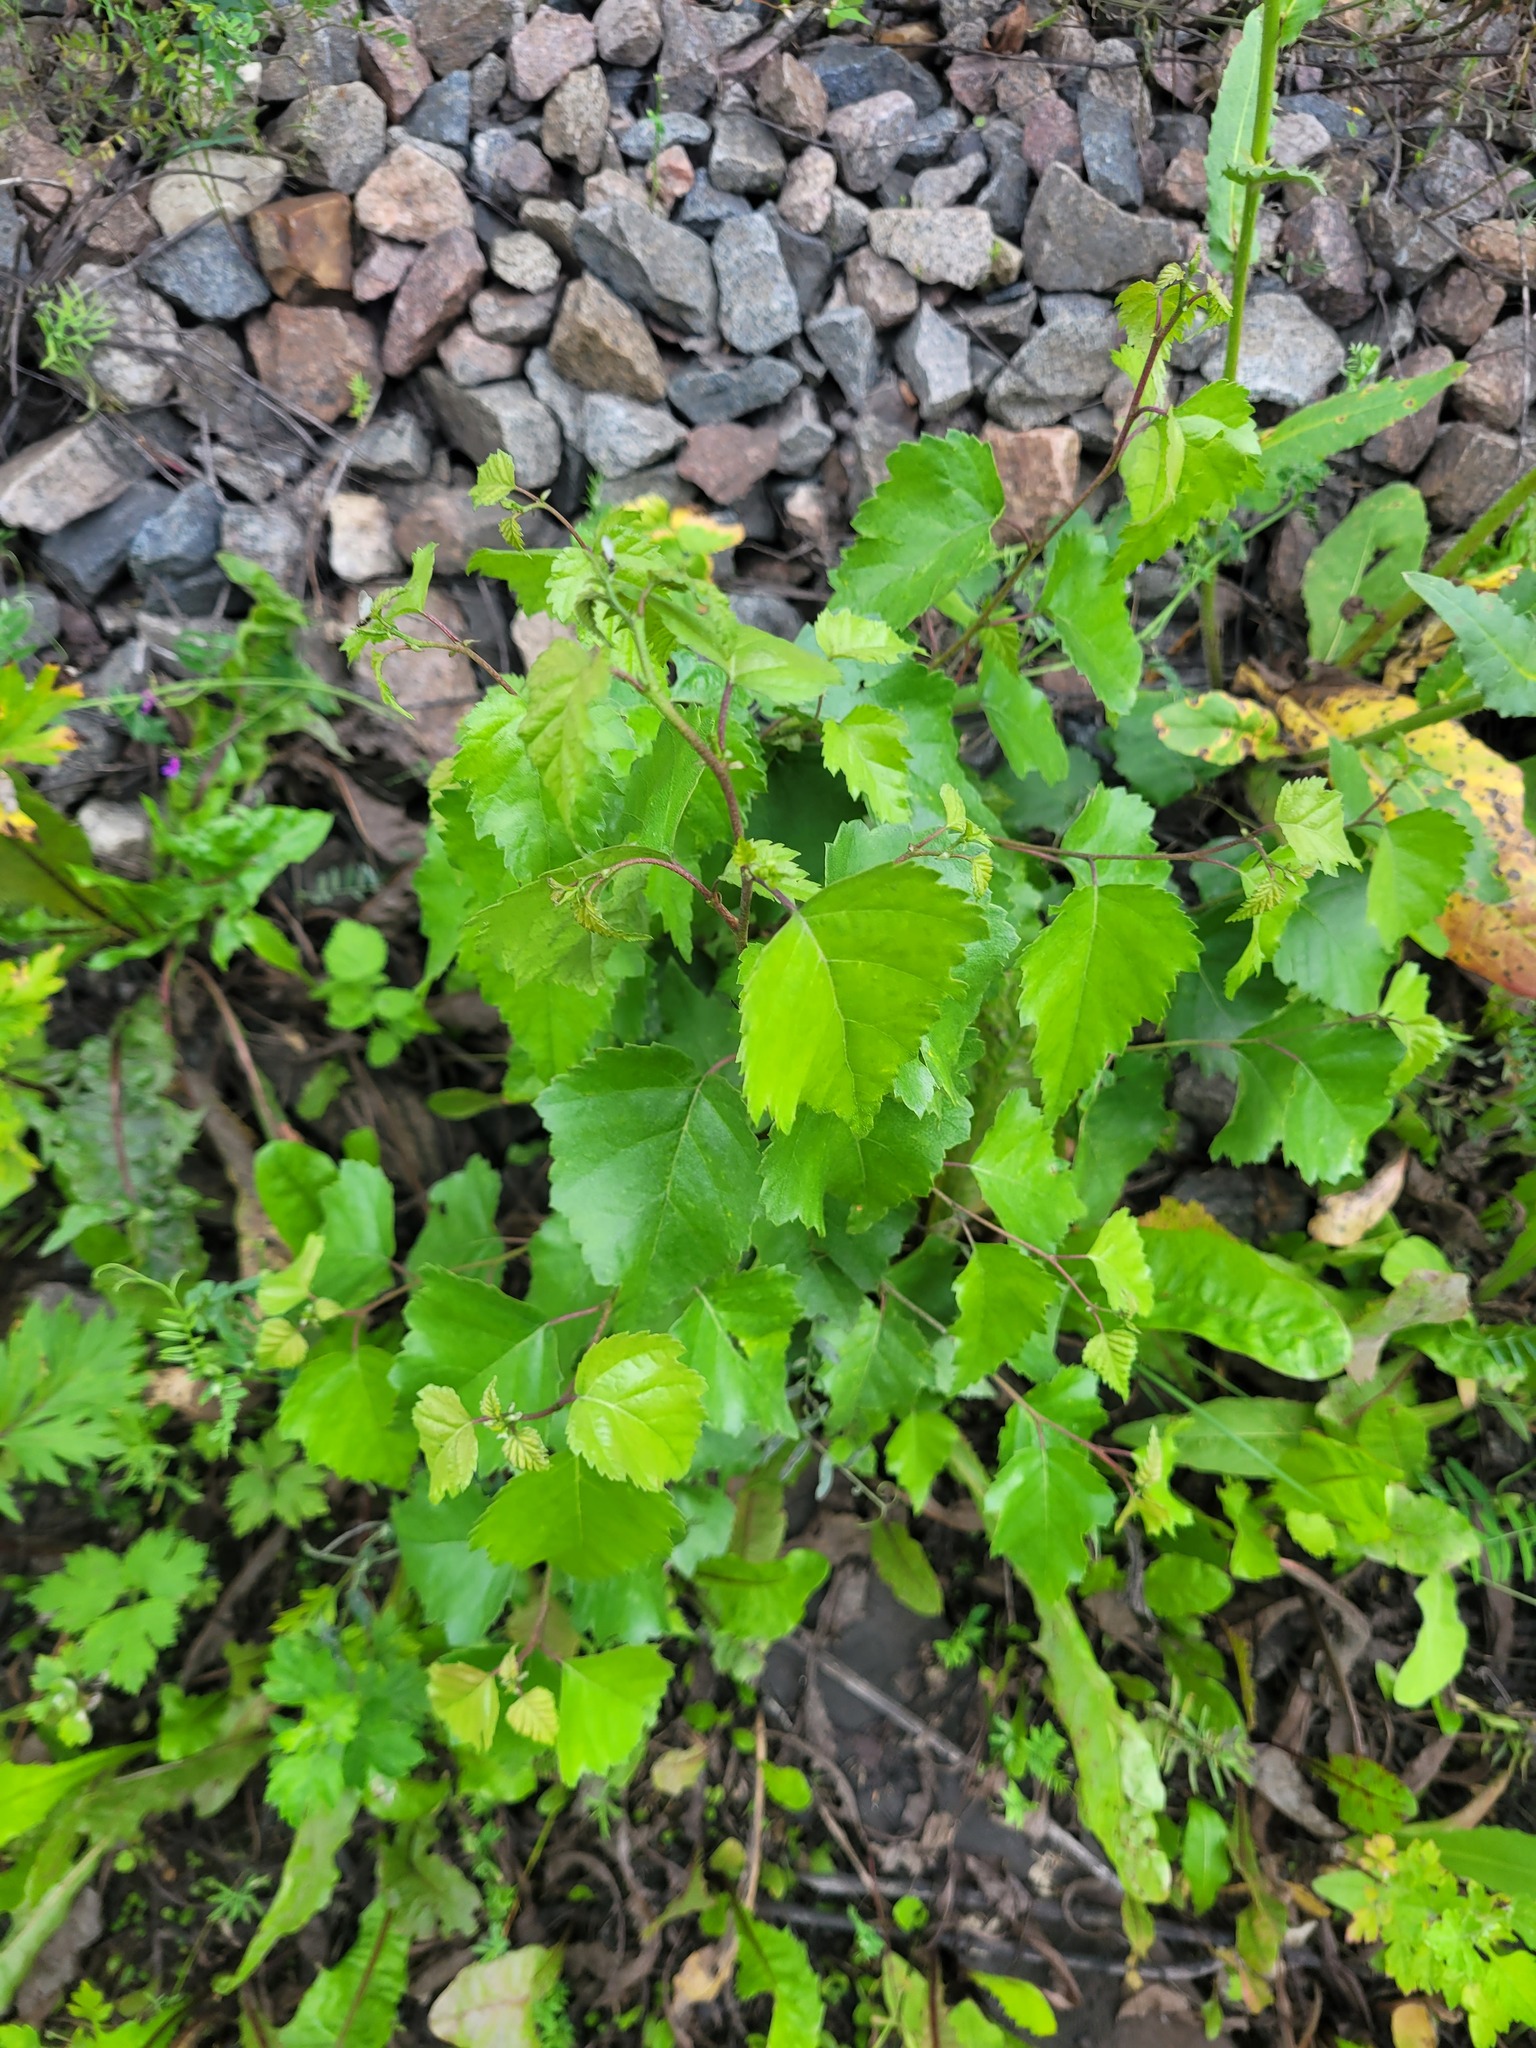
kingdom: Plantae
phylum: Tracheophyta
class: Magnoliopsida
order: Fagales
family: Betulaceae
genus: Betula
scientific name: Betula pendula
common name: Silver birch
